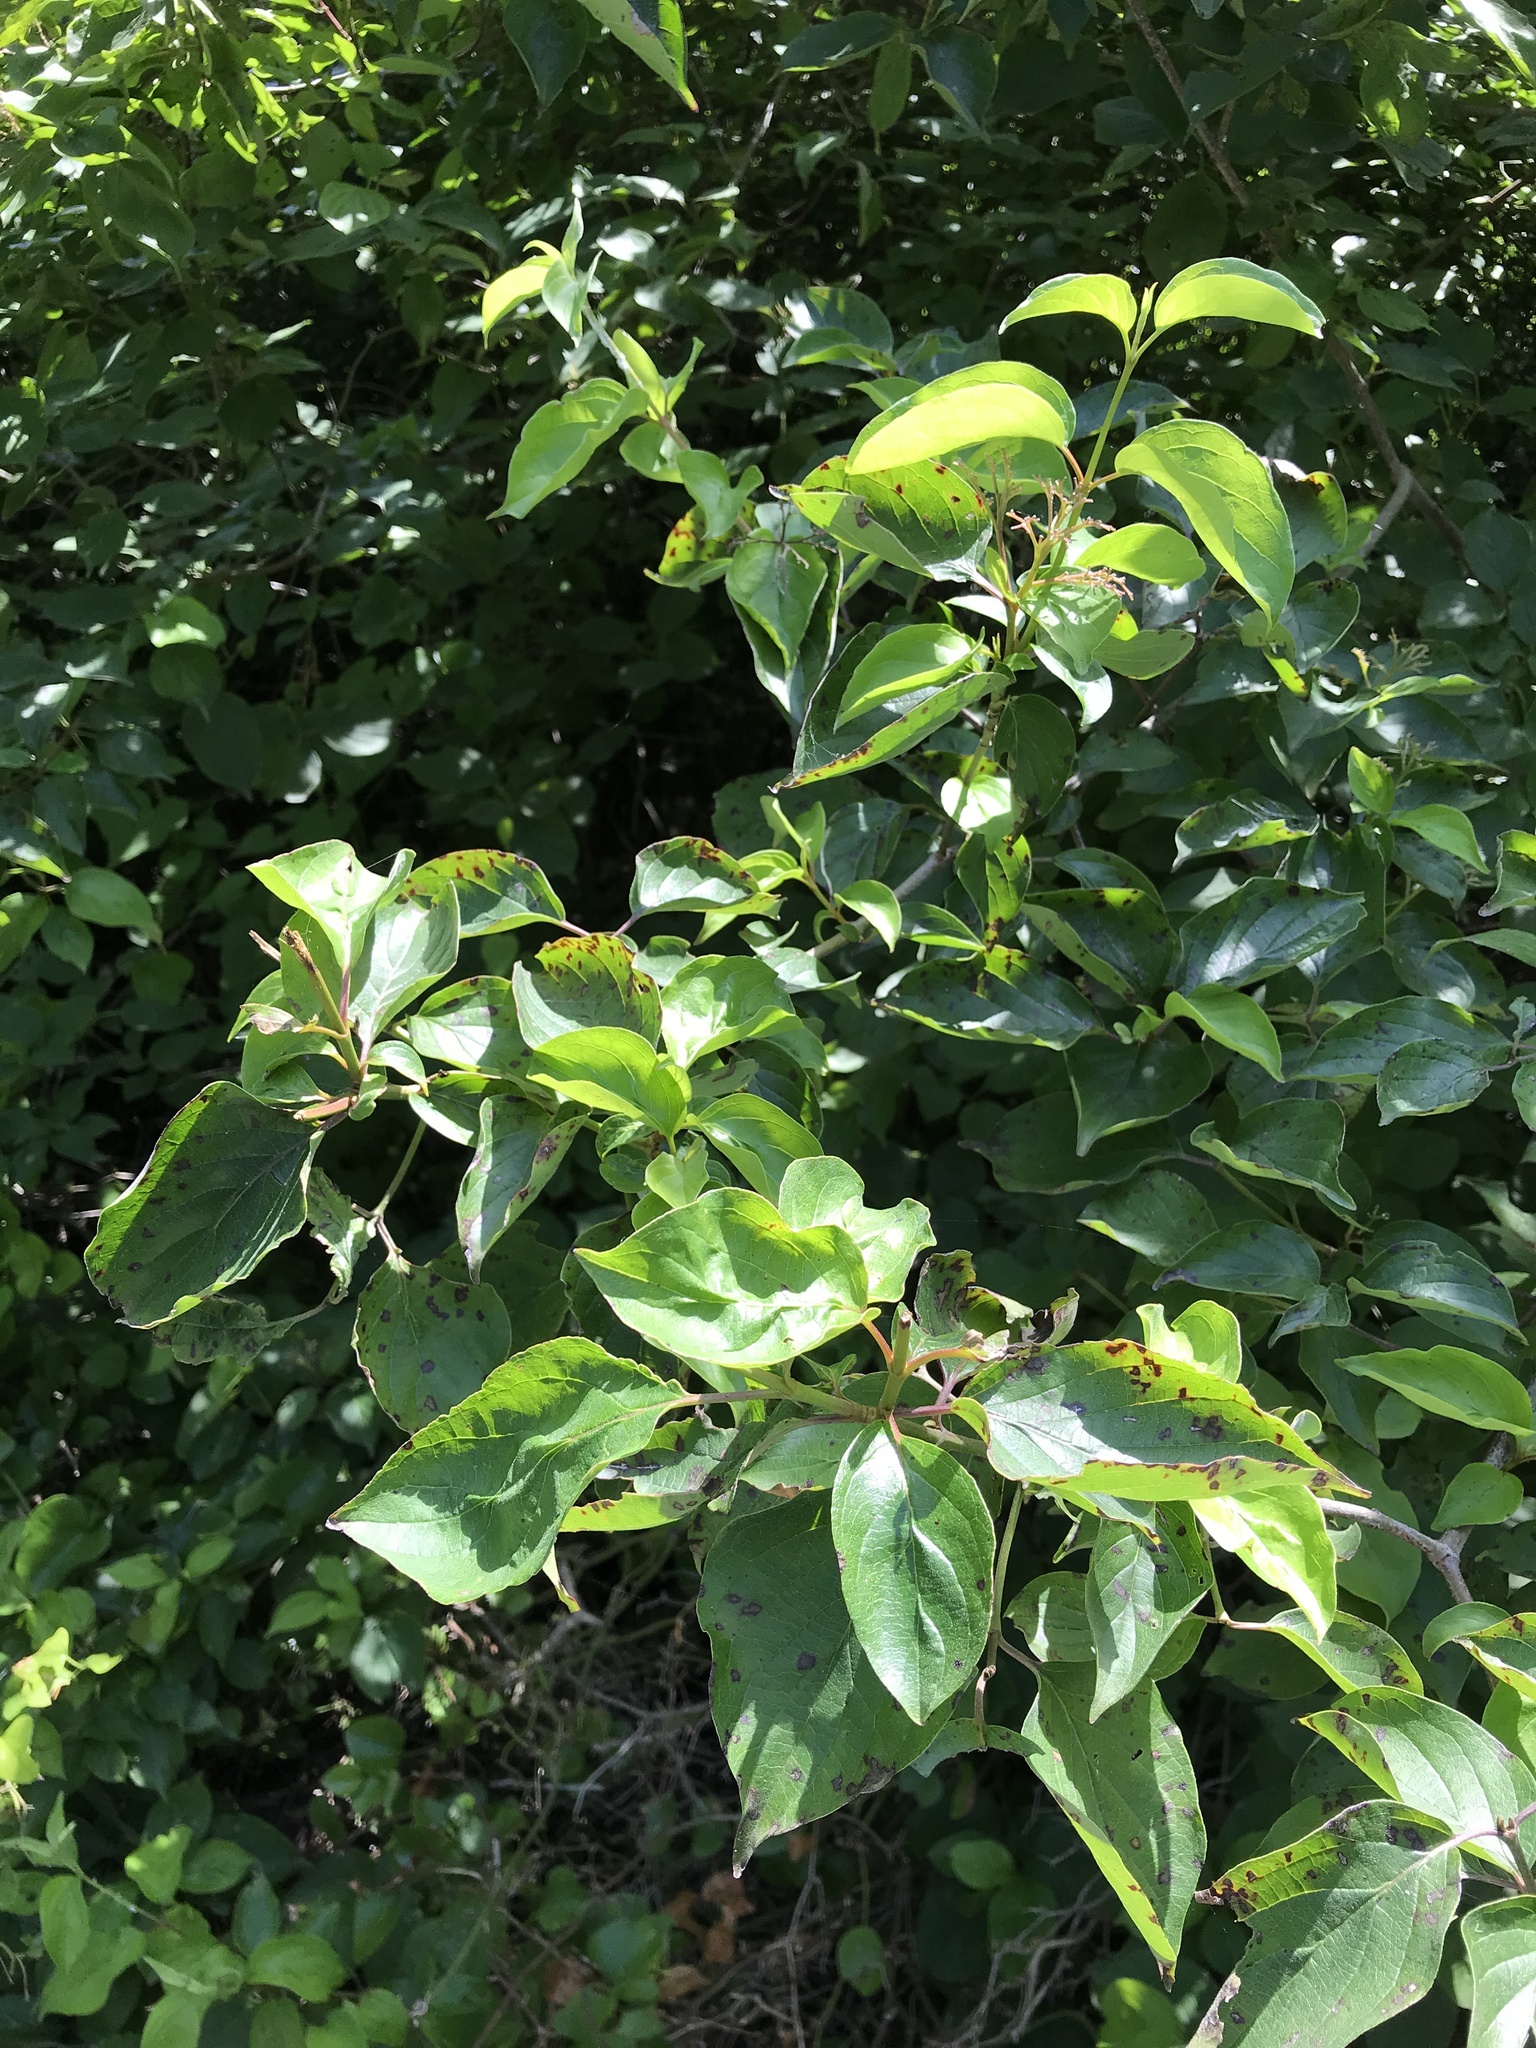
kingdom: Plantae
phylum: Tracheophyta
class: Magnoliopsida
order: Cornales
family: Cornaceae
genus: Cornus
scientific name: Cornus drummondii
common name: Rough-leaf dogwood
